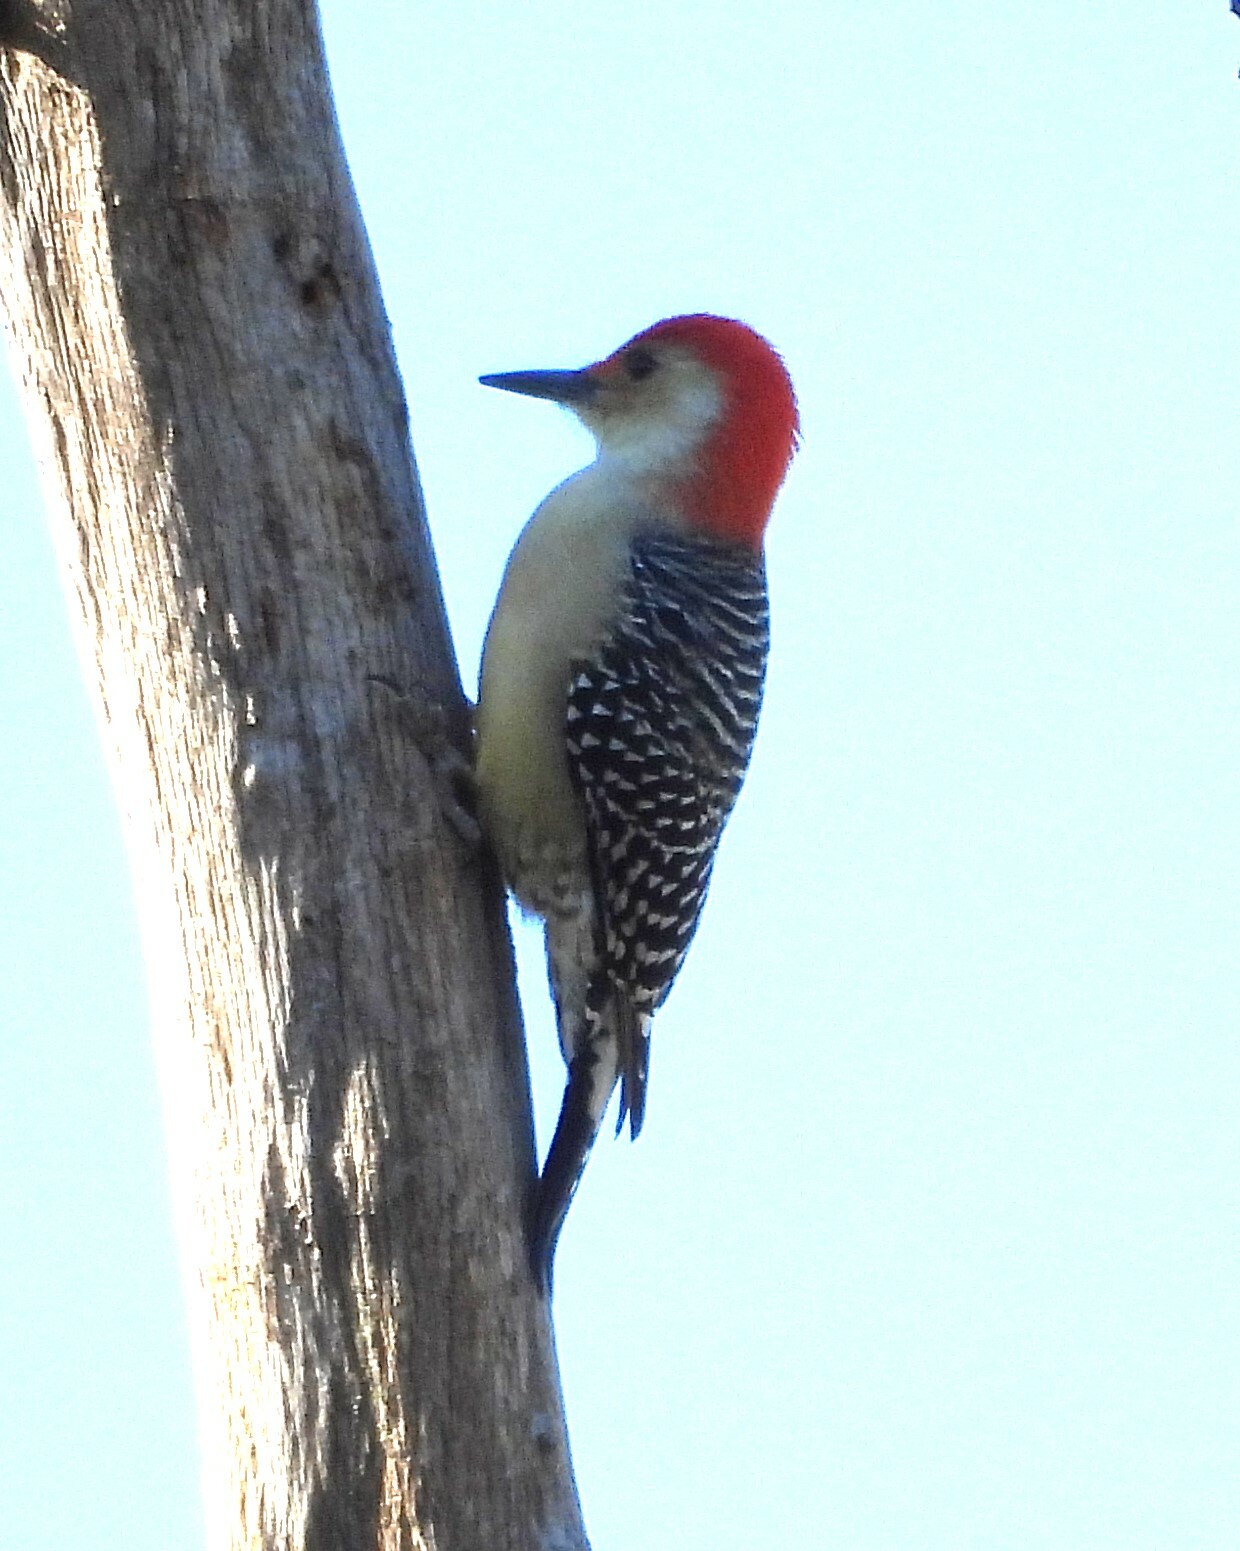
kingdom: Animalia
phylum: Chordata
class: Aves
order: Piciformes
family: Picidae
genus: Melanerpes
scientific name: Melanerpes carolinus
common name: Red-bellied woodpecker
